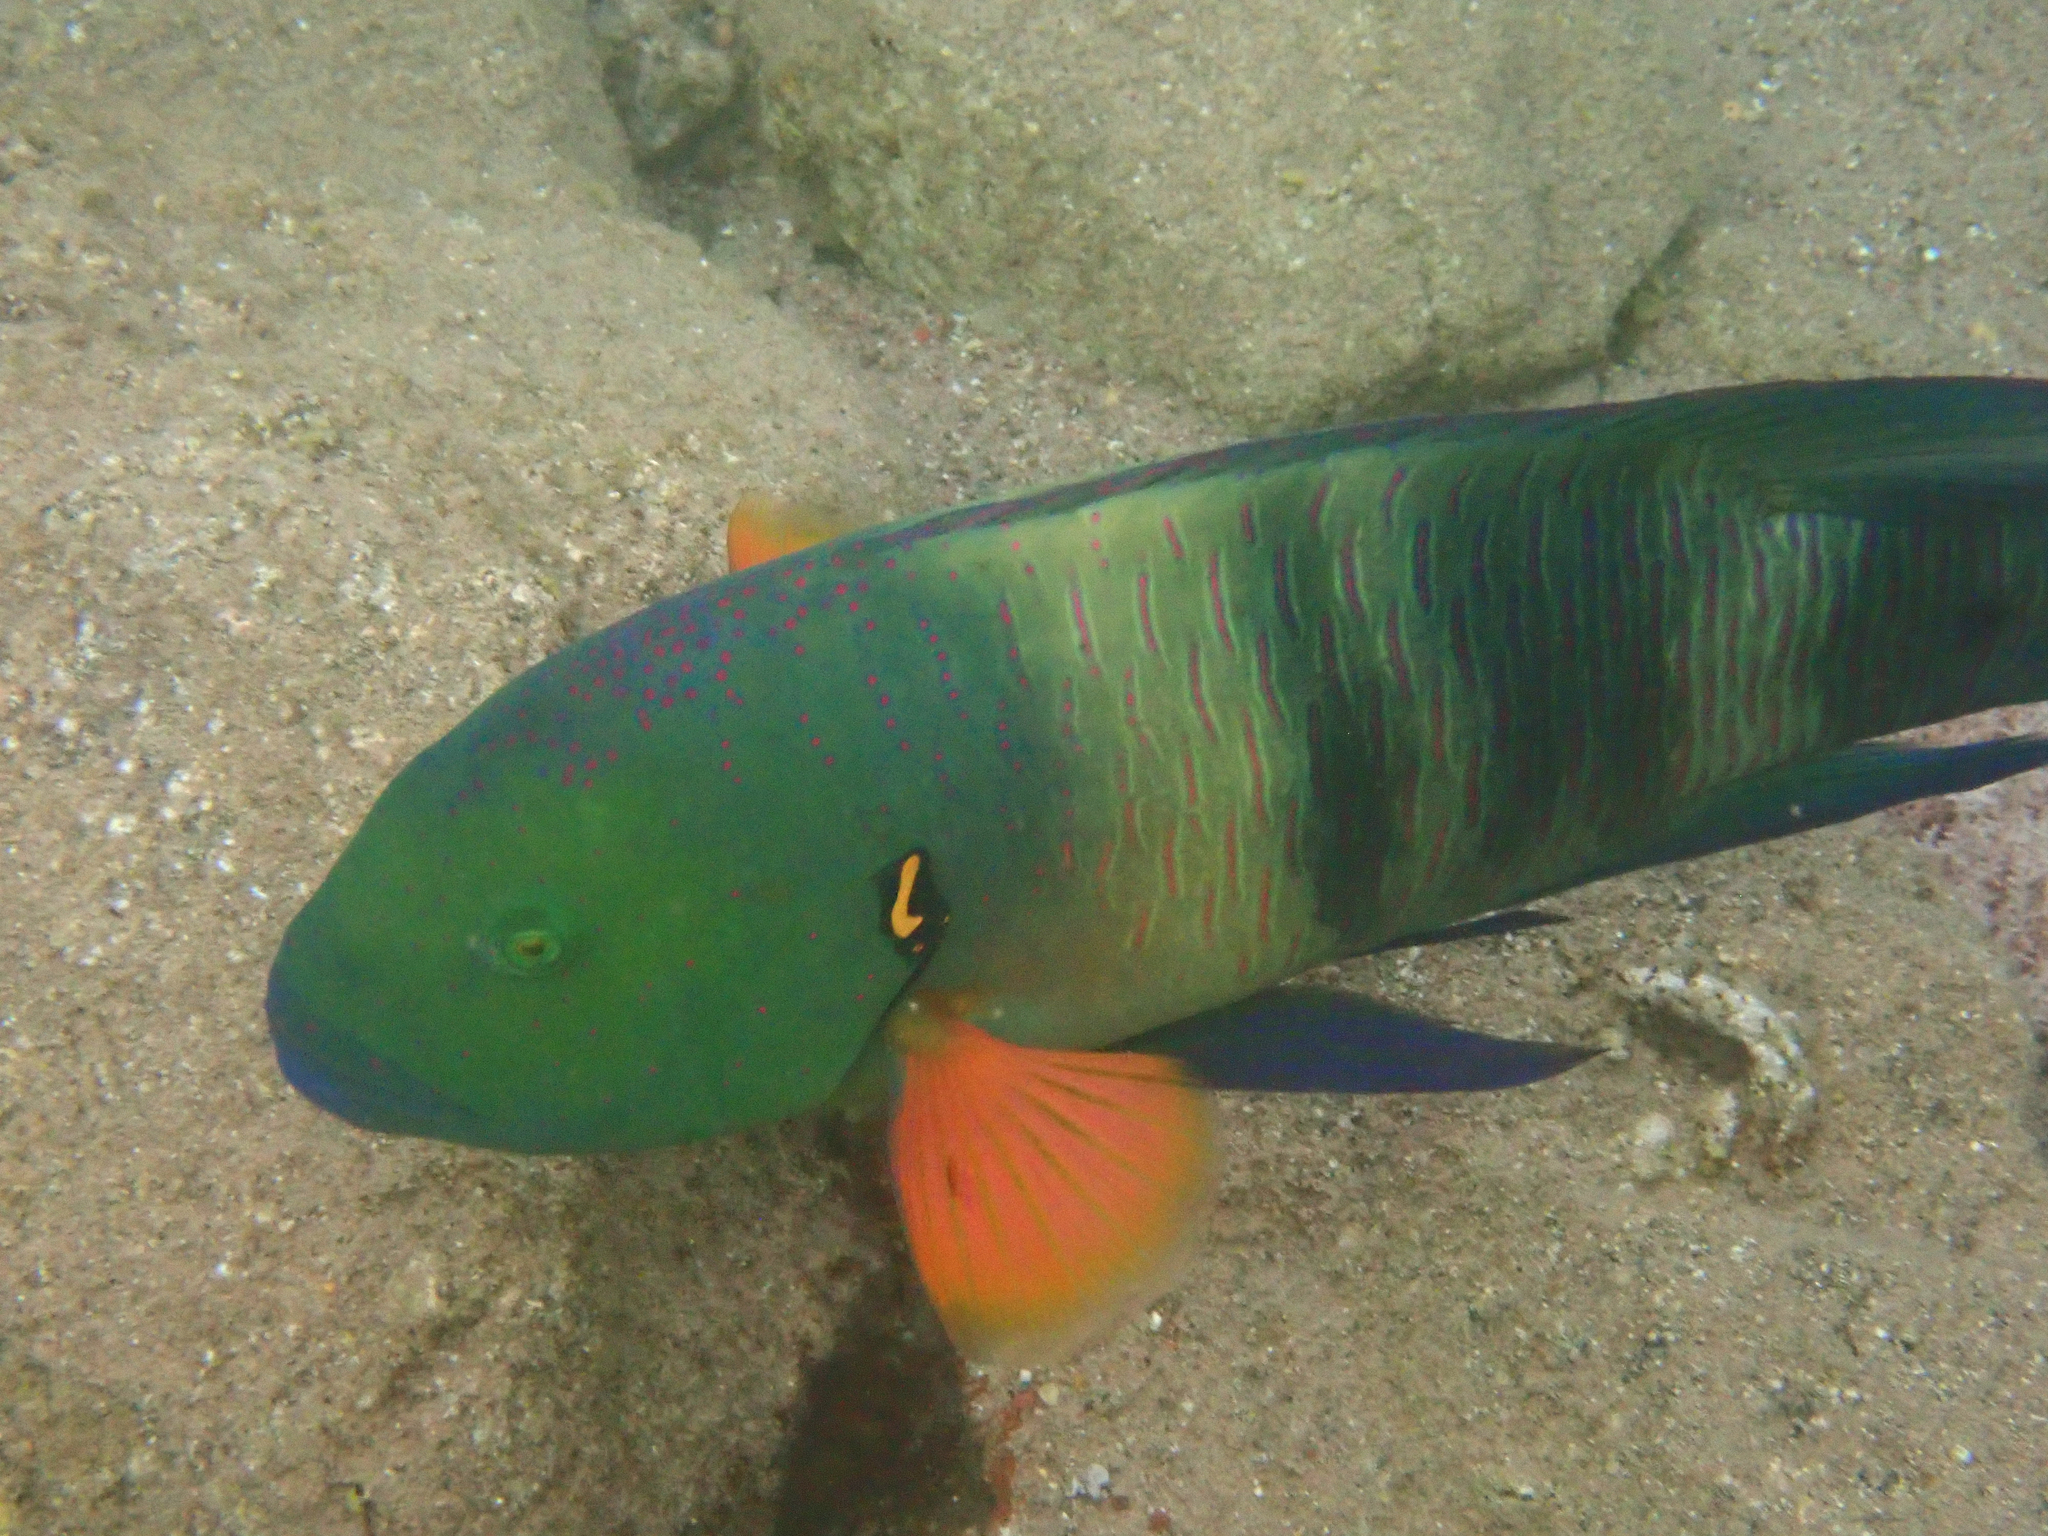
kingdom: Animalia
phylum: Chordata
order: Perciformes
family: Labridae
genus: Cheilinus
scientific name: Cheilinus lunulatus
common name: Broomtail wrasse
